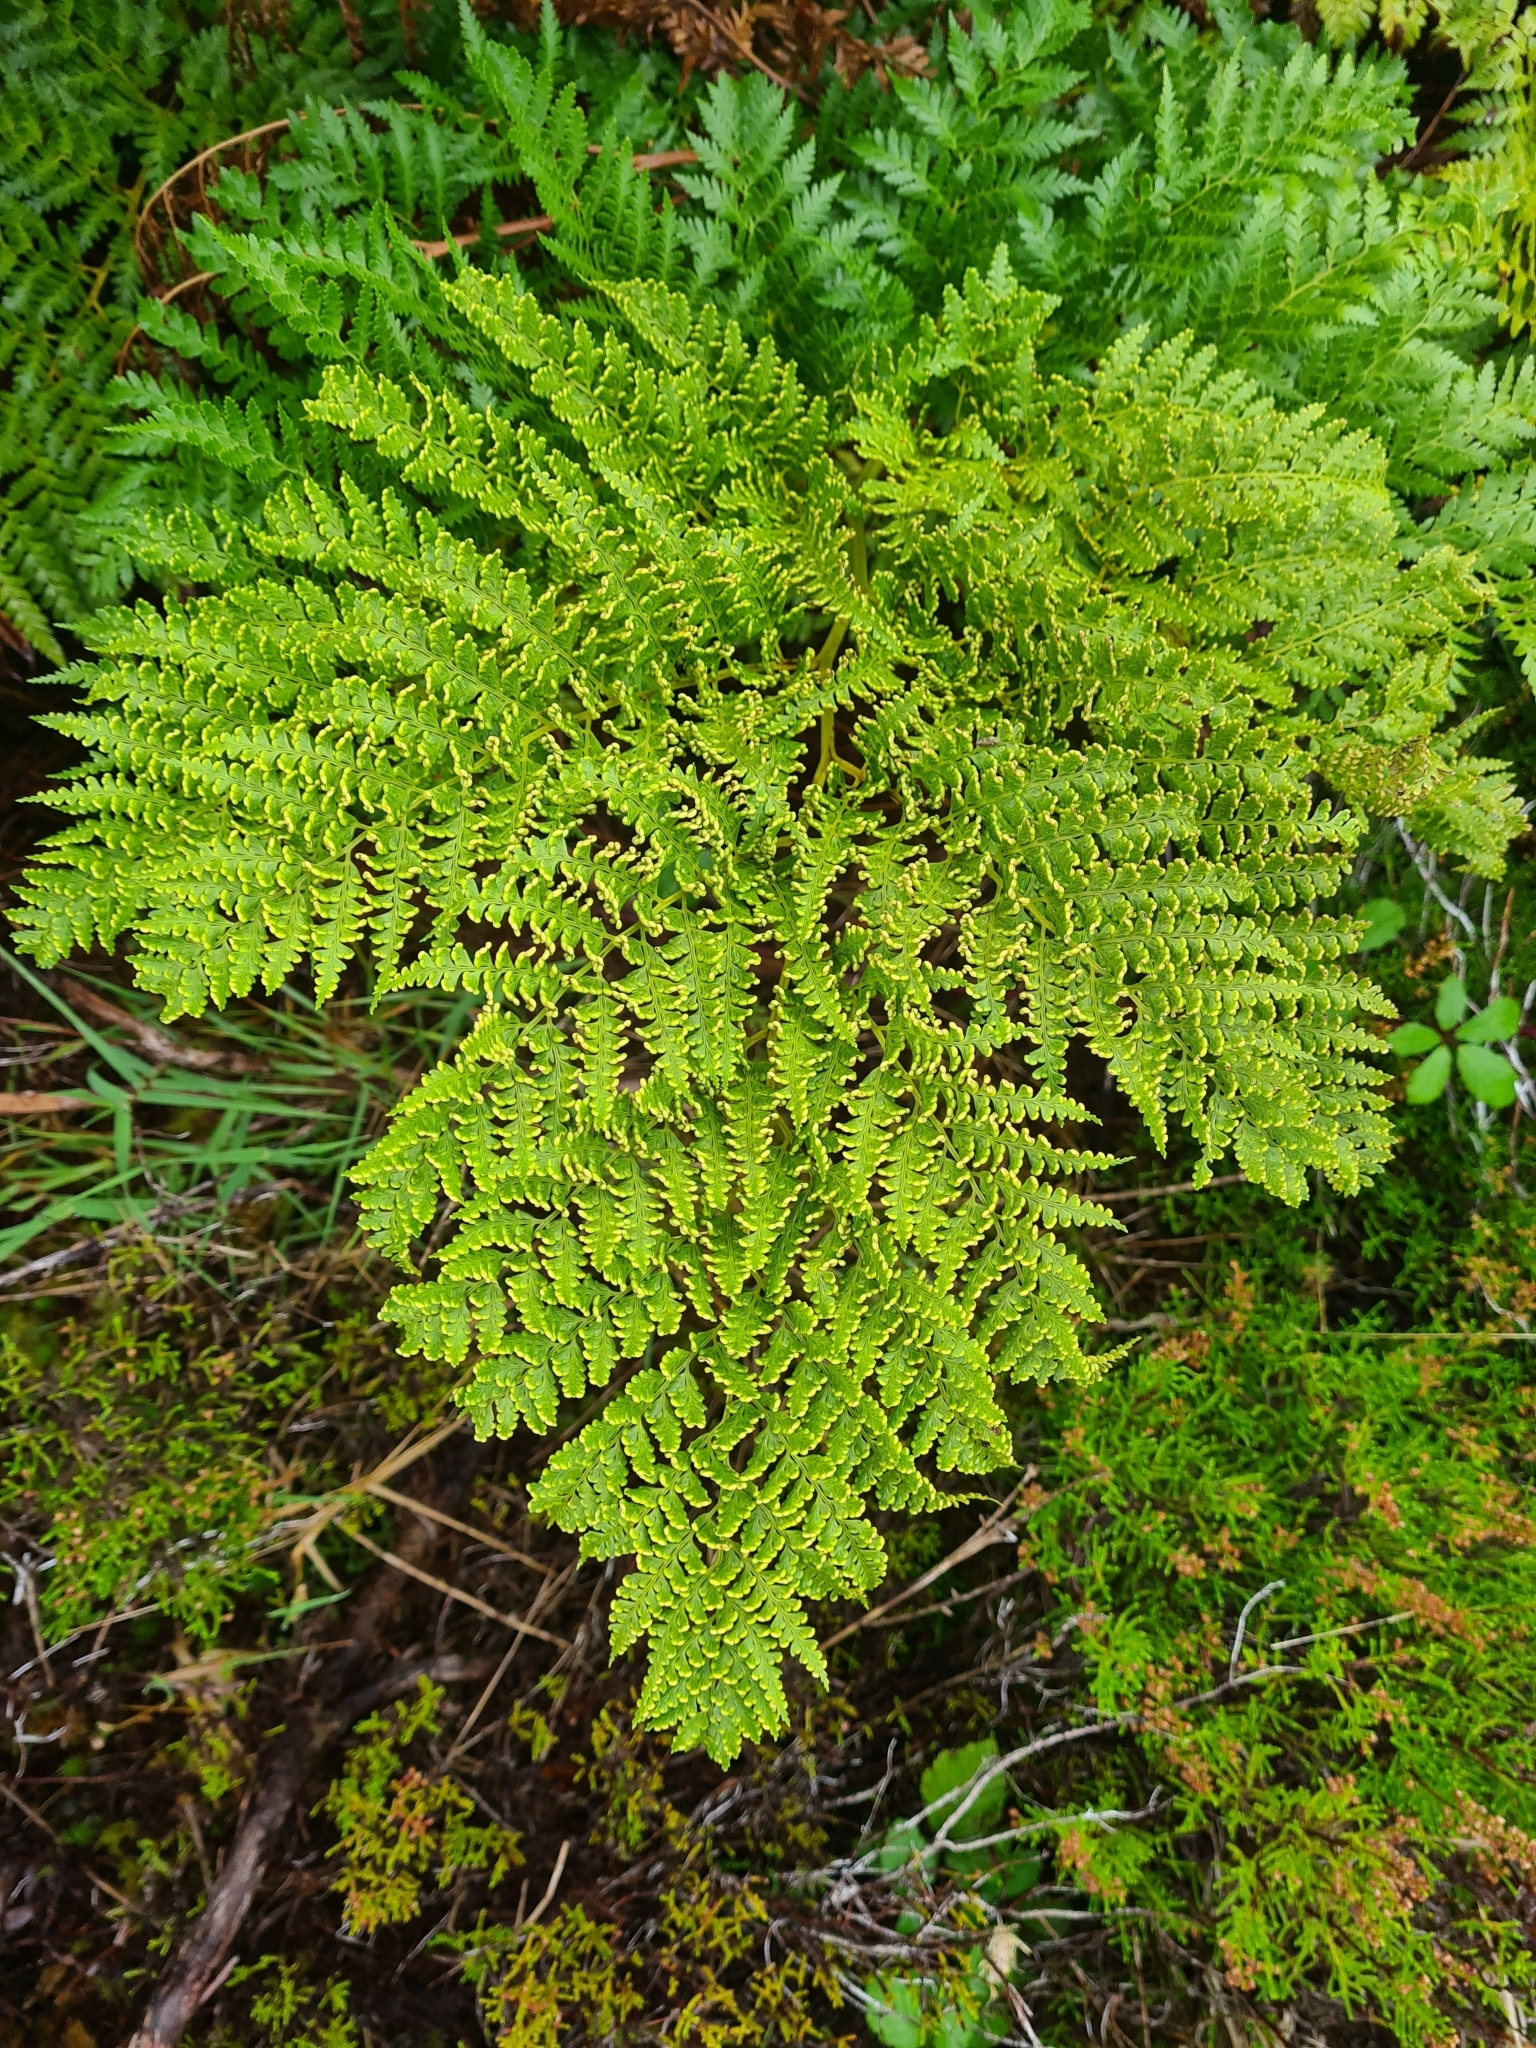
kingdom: Plantae
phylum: Tracheophyta
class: Polypodiopsida
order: Cyatheales
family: Culcitaceae
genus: Culcita
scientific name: Culcita macrocarpa
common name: Woolly tree fern
